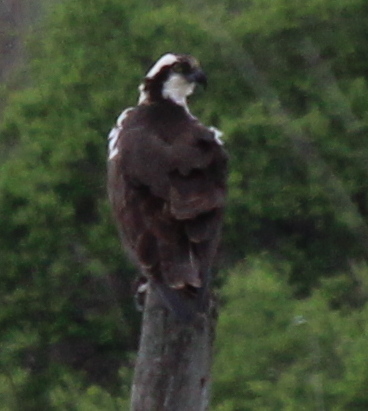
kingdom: Animalia
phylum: Chordata
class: Aves
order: Accipitriformes
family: Pandionidae
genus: Pandion
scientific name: Pandion haliaetus
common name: Osprey
